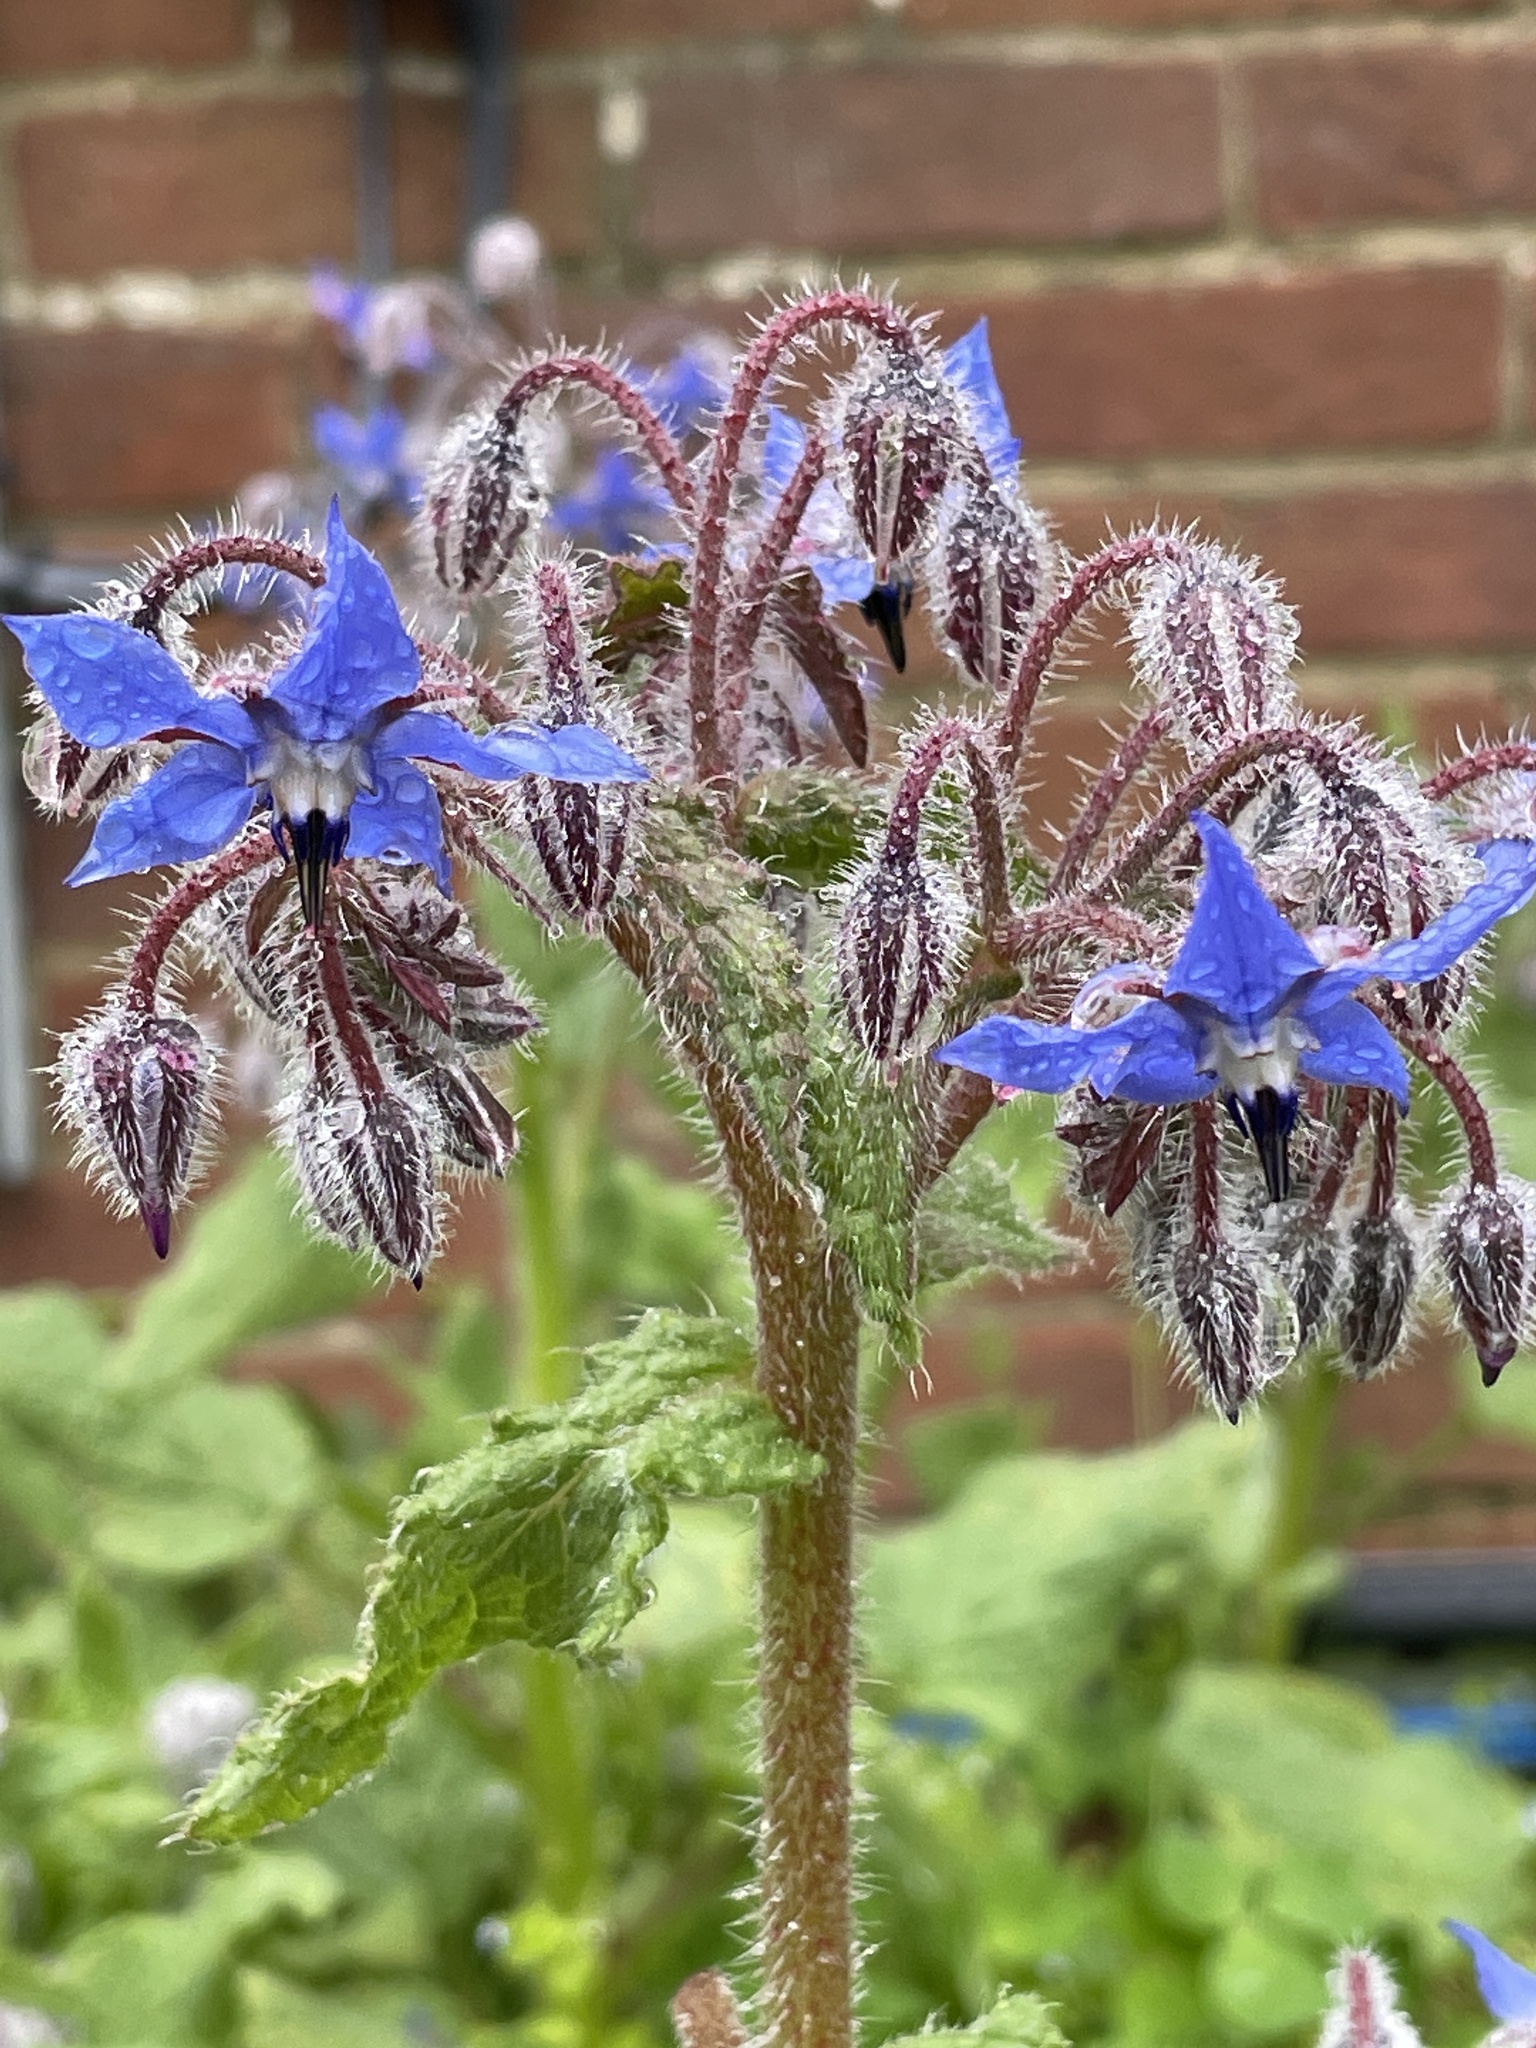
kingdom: Plantae
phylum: Tracheophyta
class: Magnoliopsida
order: Boraginales
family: Boraginaceae
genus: Borago
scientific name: Borago officinalis
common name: Borage
